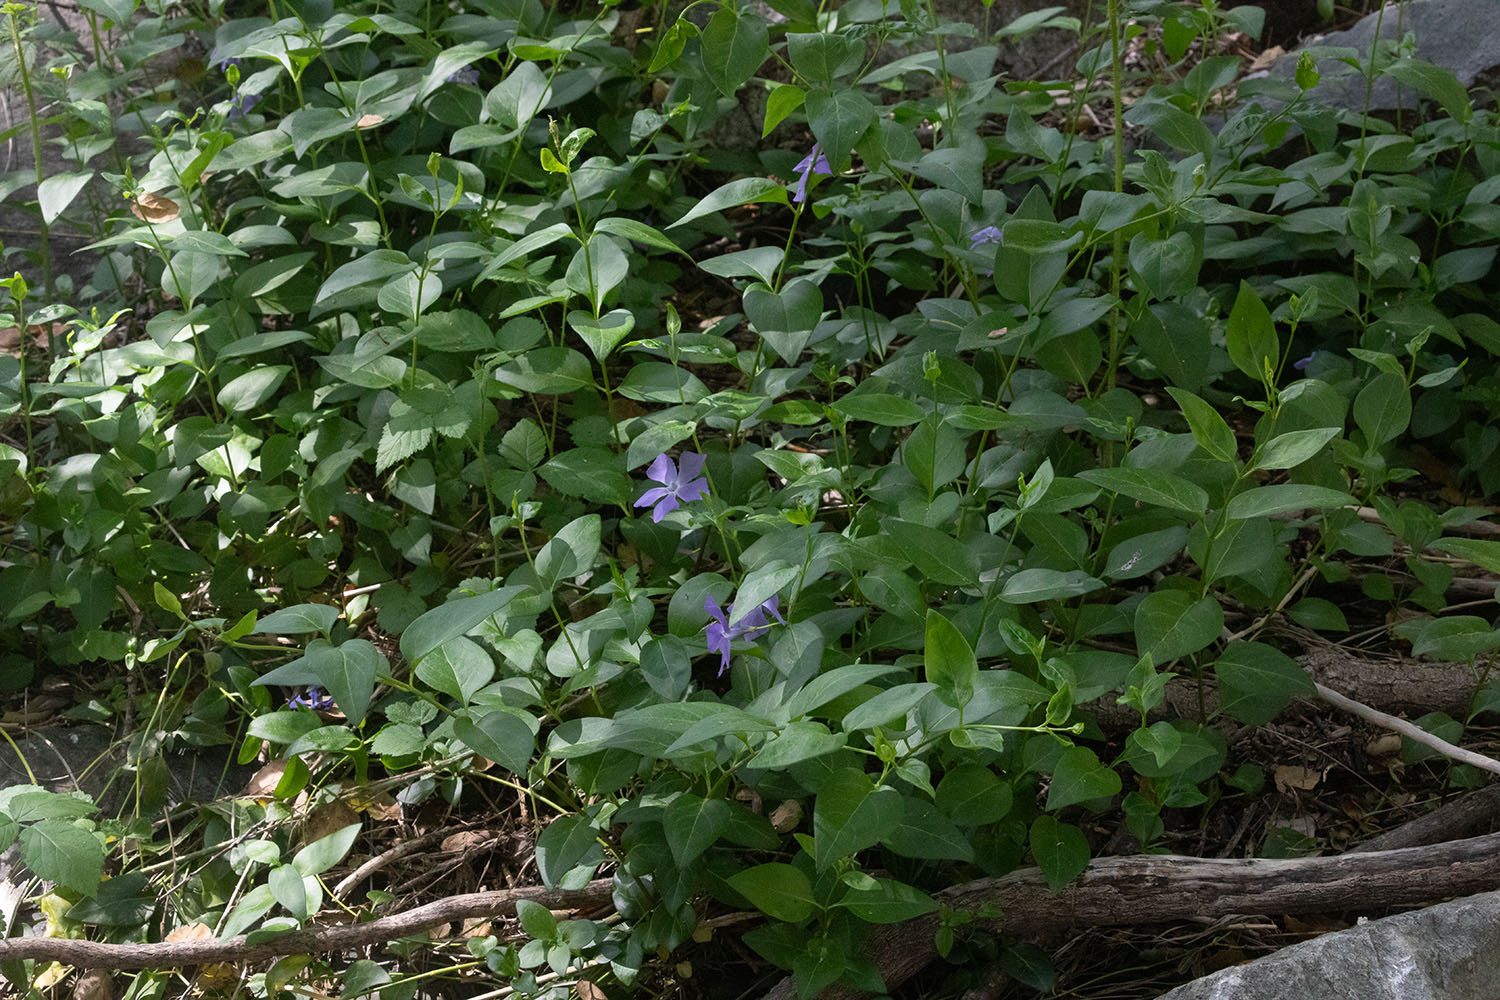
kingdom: Plantae
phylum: Tracheophyta
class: Magnoliopsida
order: Gentianales
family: Apocynaceae
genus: Vinca
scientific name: Vinca major
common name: Greater periwinkle
